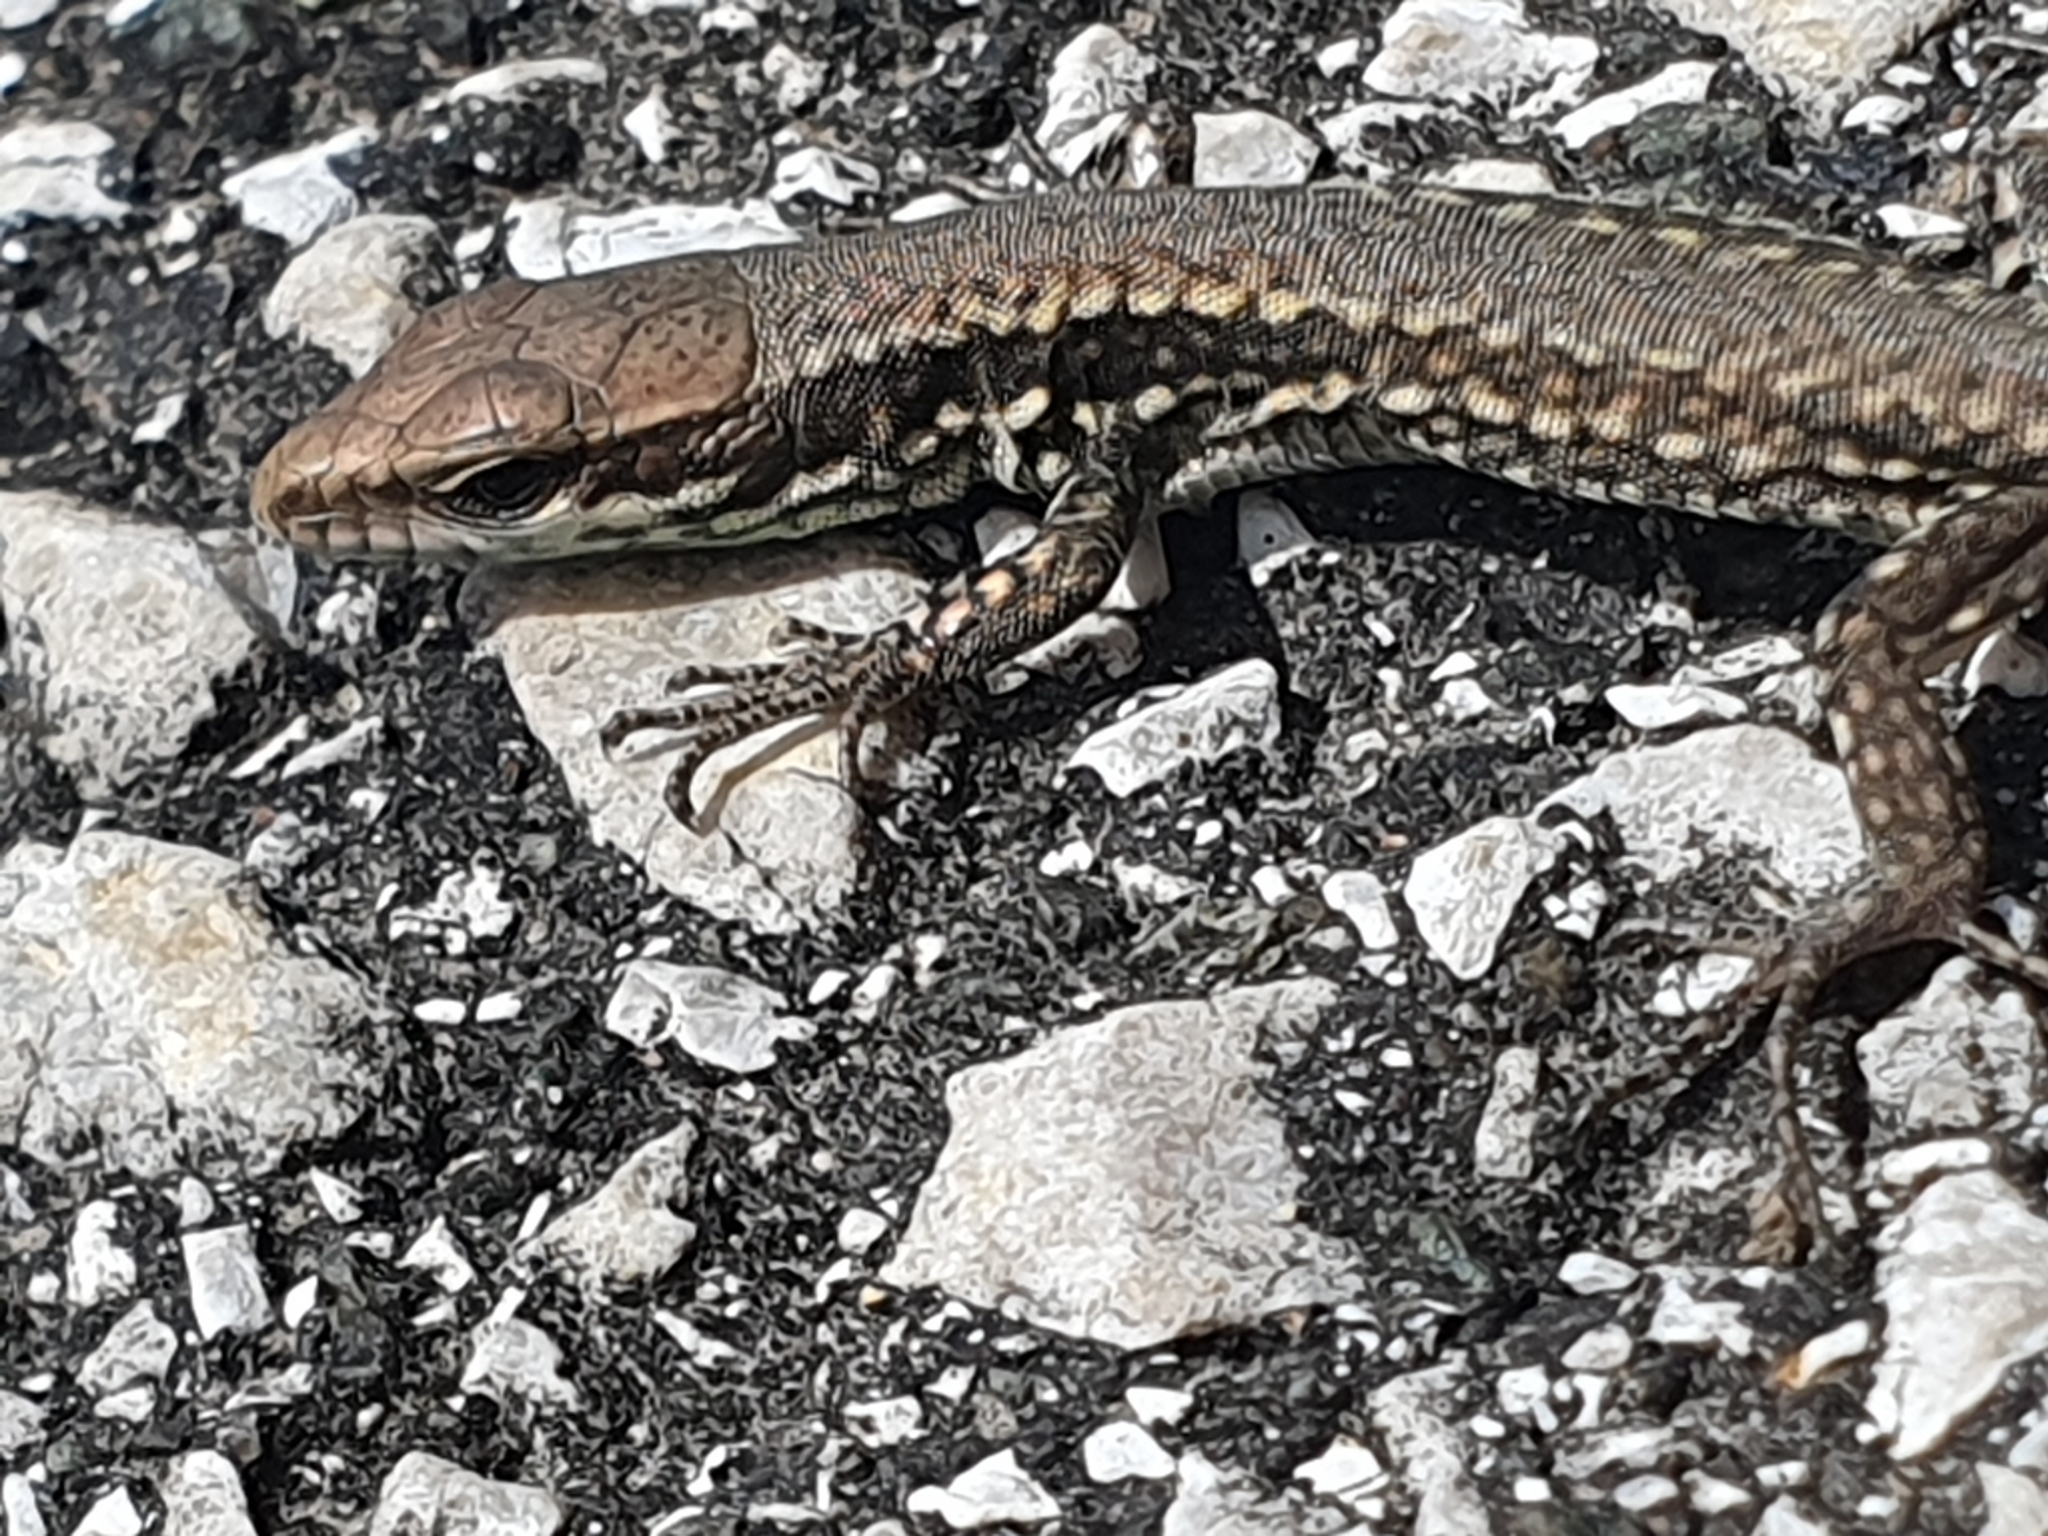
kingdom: Animalia
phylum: Chordata
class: Squamata
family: Lacertidae
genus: Podarcis
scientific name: Podarcis muralis
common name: Common wall lizard
